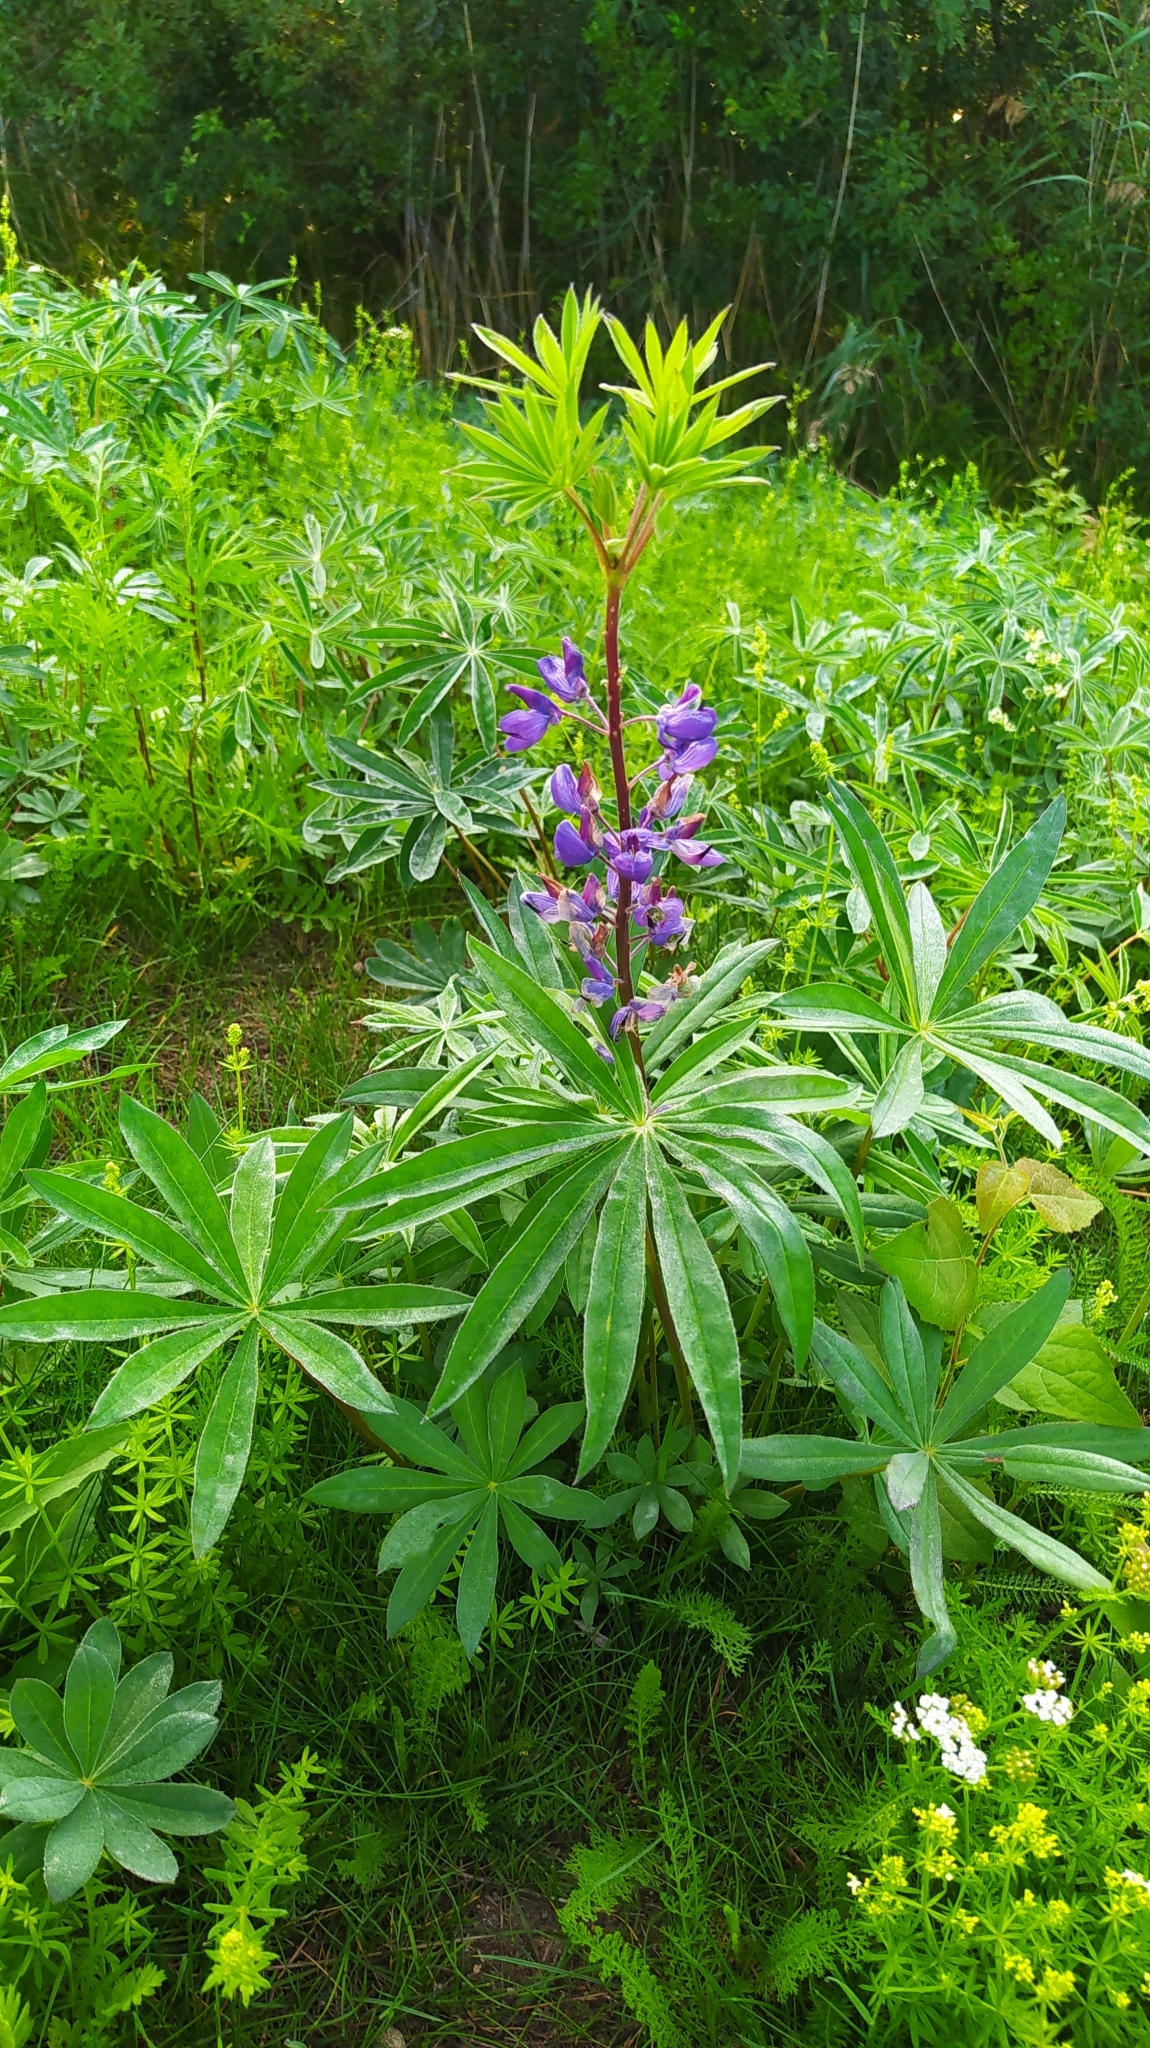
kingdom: Plantae
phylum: Tracheophyta
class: Magnoliopsida
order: Fabales
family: Fabaceae
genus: Lupinus
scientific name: Lupinus polyphyllus
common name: Garden lupin
